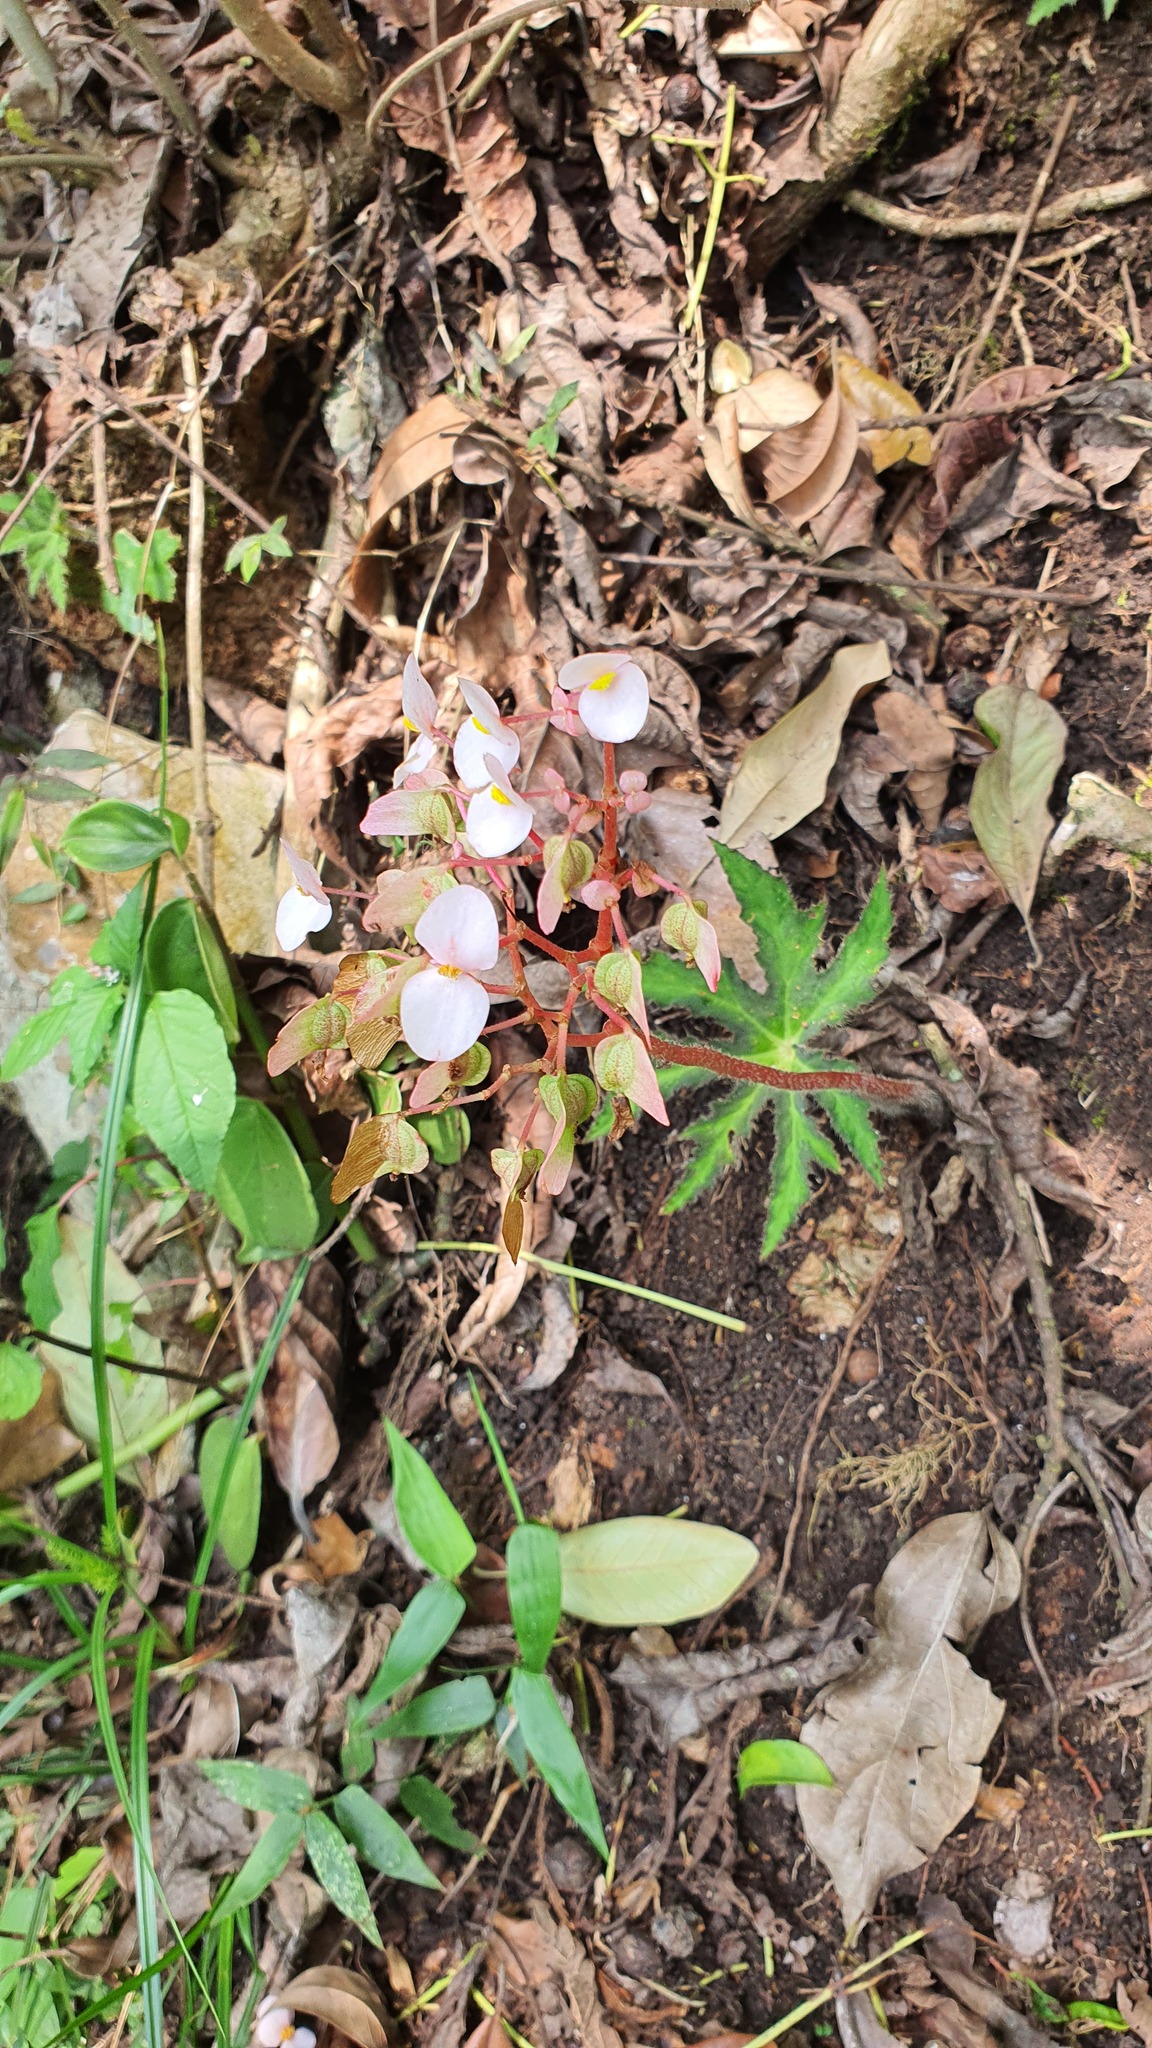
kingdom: Plantae
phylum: Tracheophyta
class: Magnoliopsida
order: Cucurbitales
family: Begoniaceae
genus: Begonia
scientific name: Begonia heracleifolia
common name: Star begonia
